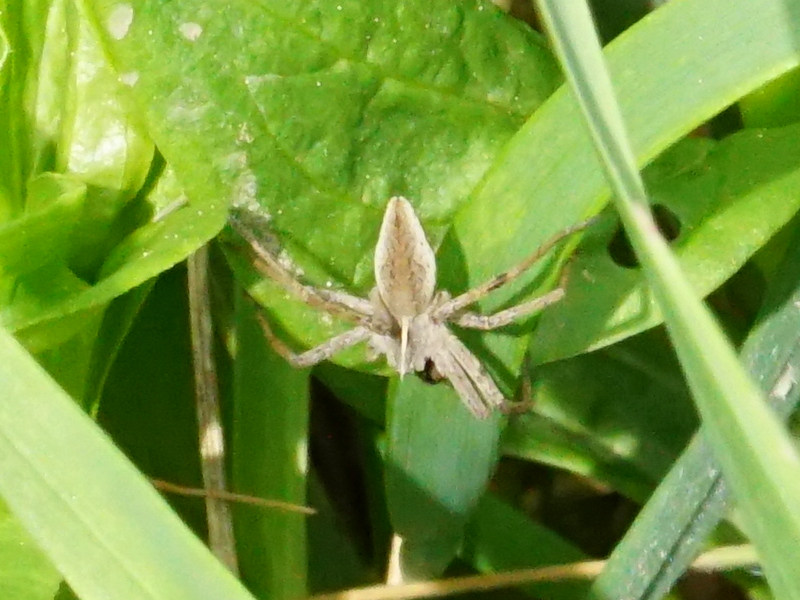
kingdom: Animalia
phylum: Arthropoda
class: Arachnida
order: Araneae
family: Pisauridae
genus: Pisaura
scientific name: Pisaura mirabilis
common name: Tent spider
